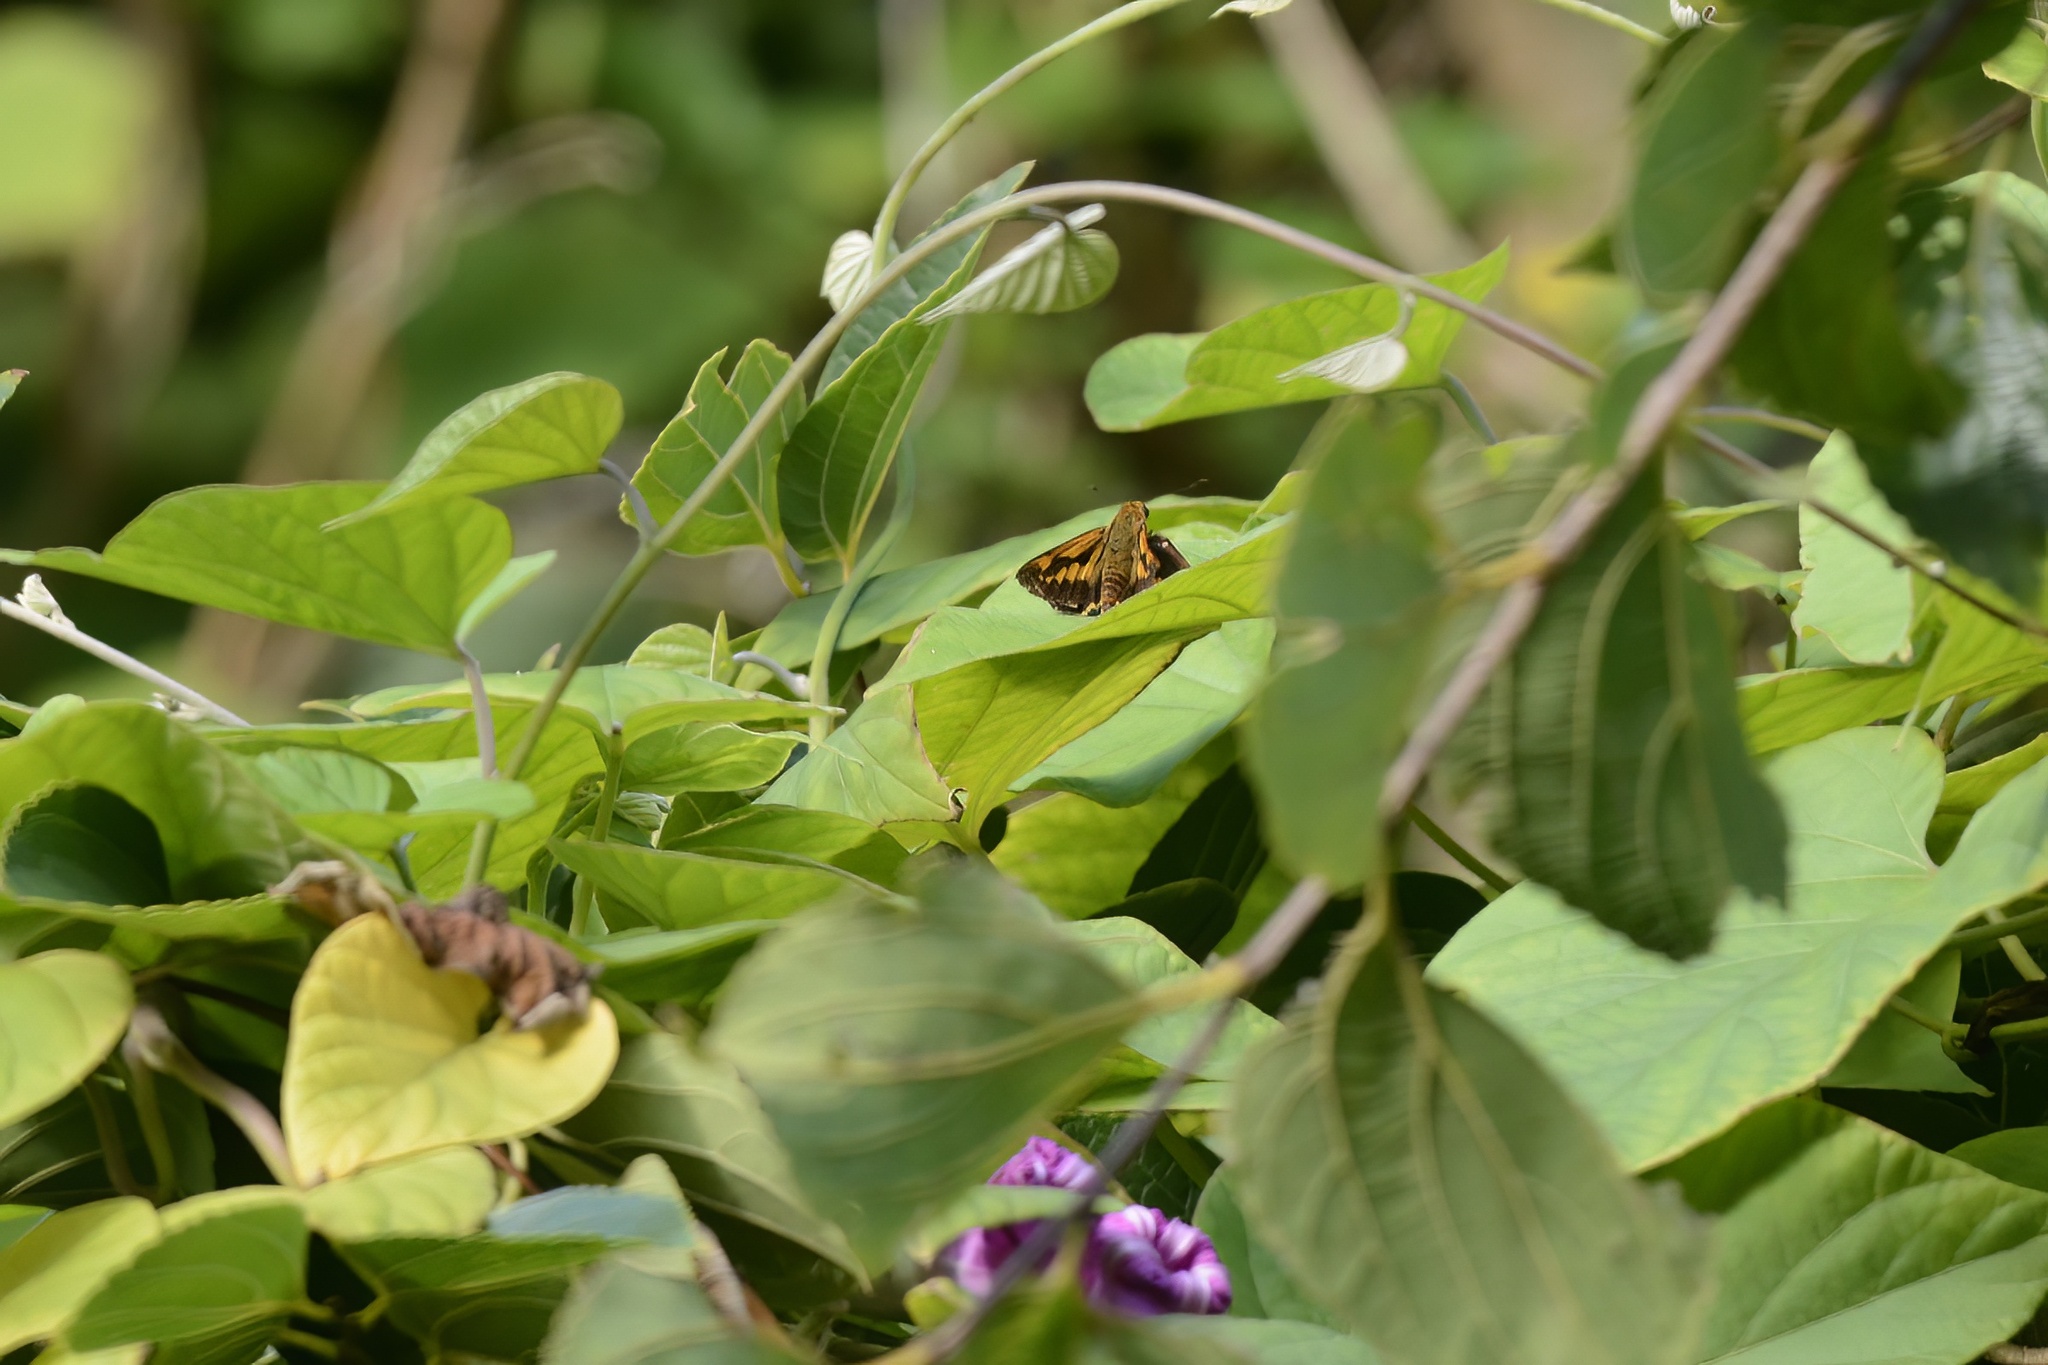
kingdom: Animalia
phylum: Arthropoda
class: Insecta
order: Lepidoptera
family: Hesperiidae
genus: Cephrenes
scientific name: Cephrenes augiades
